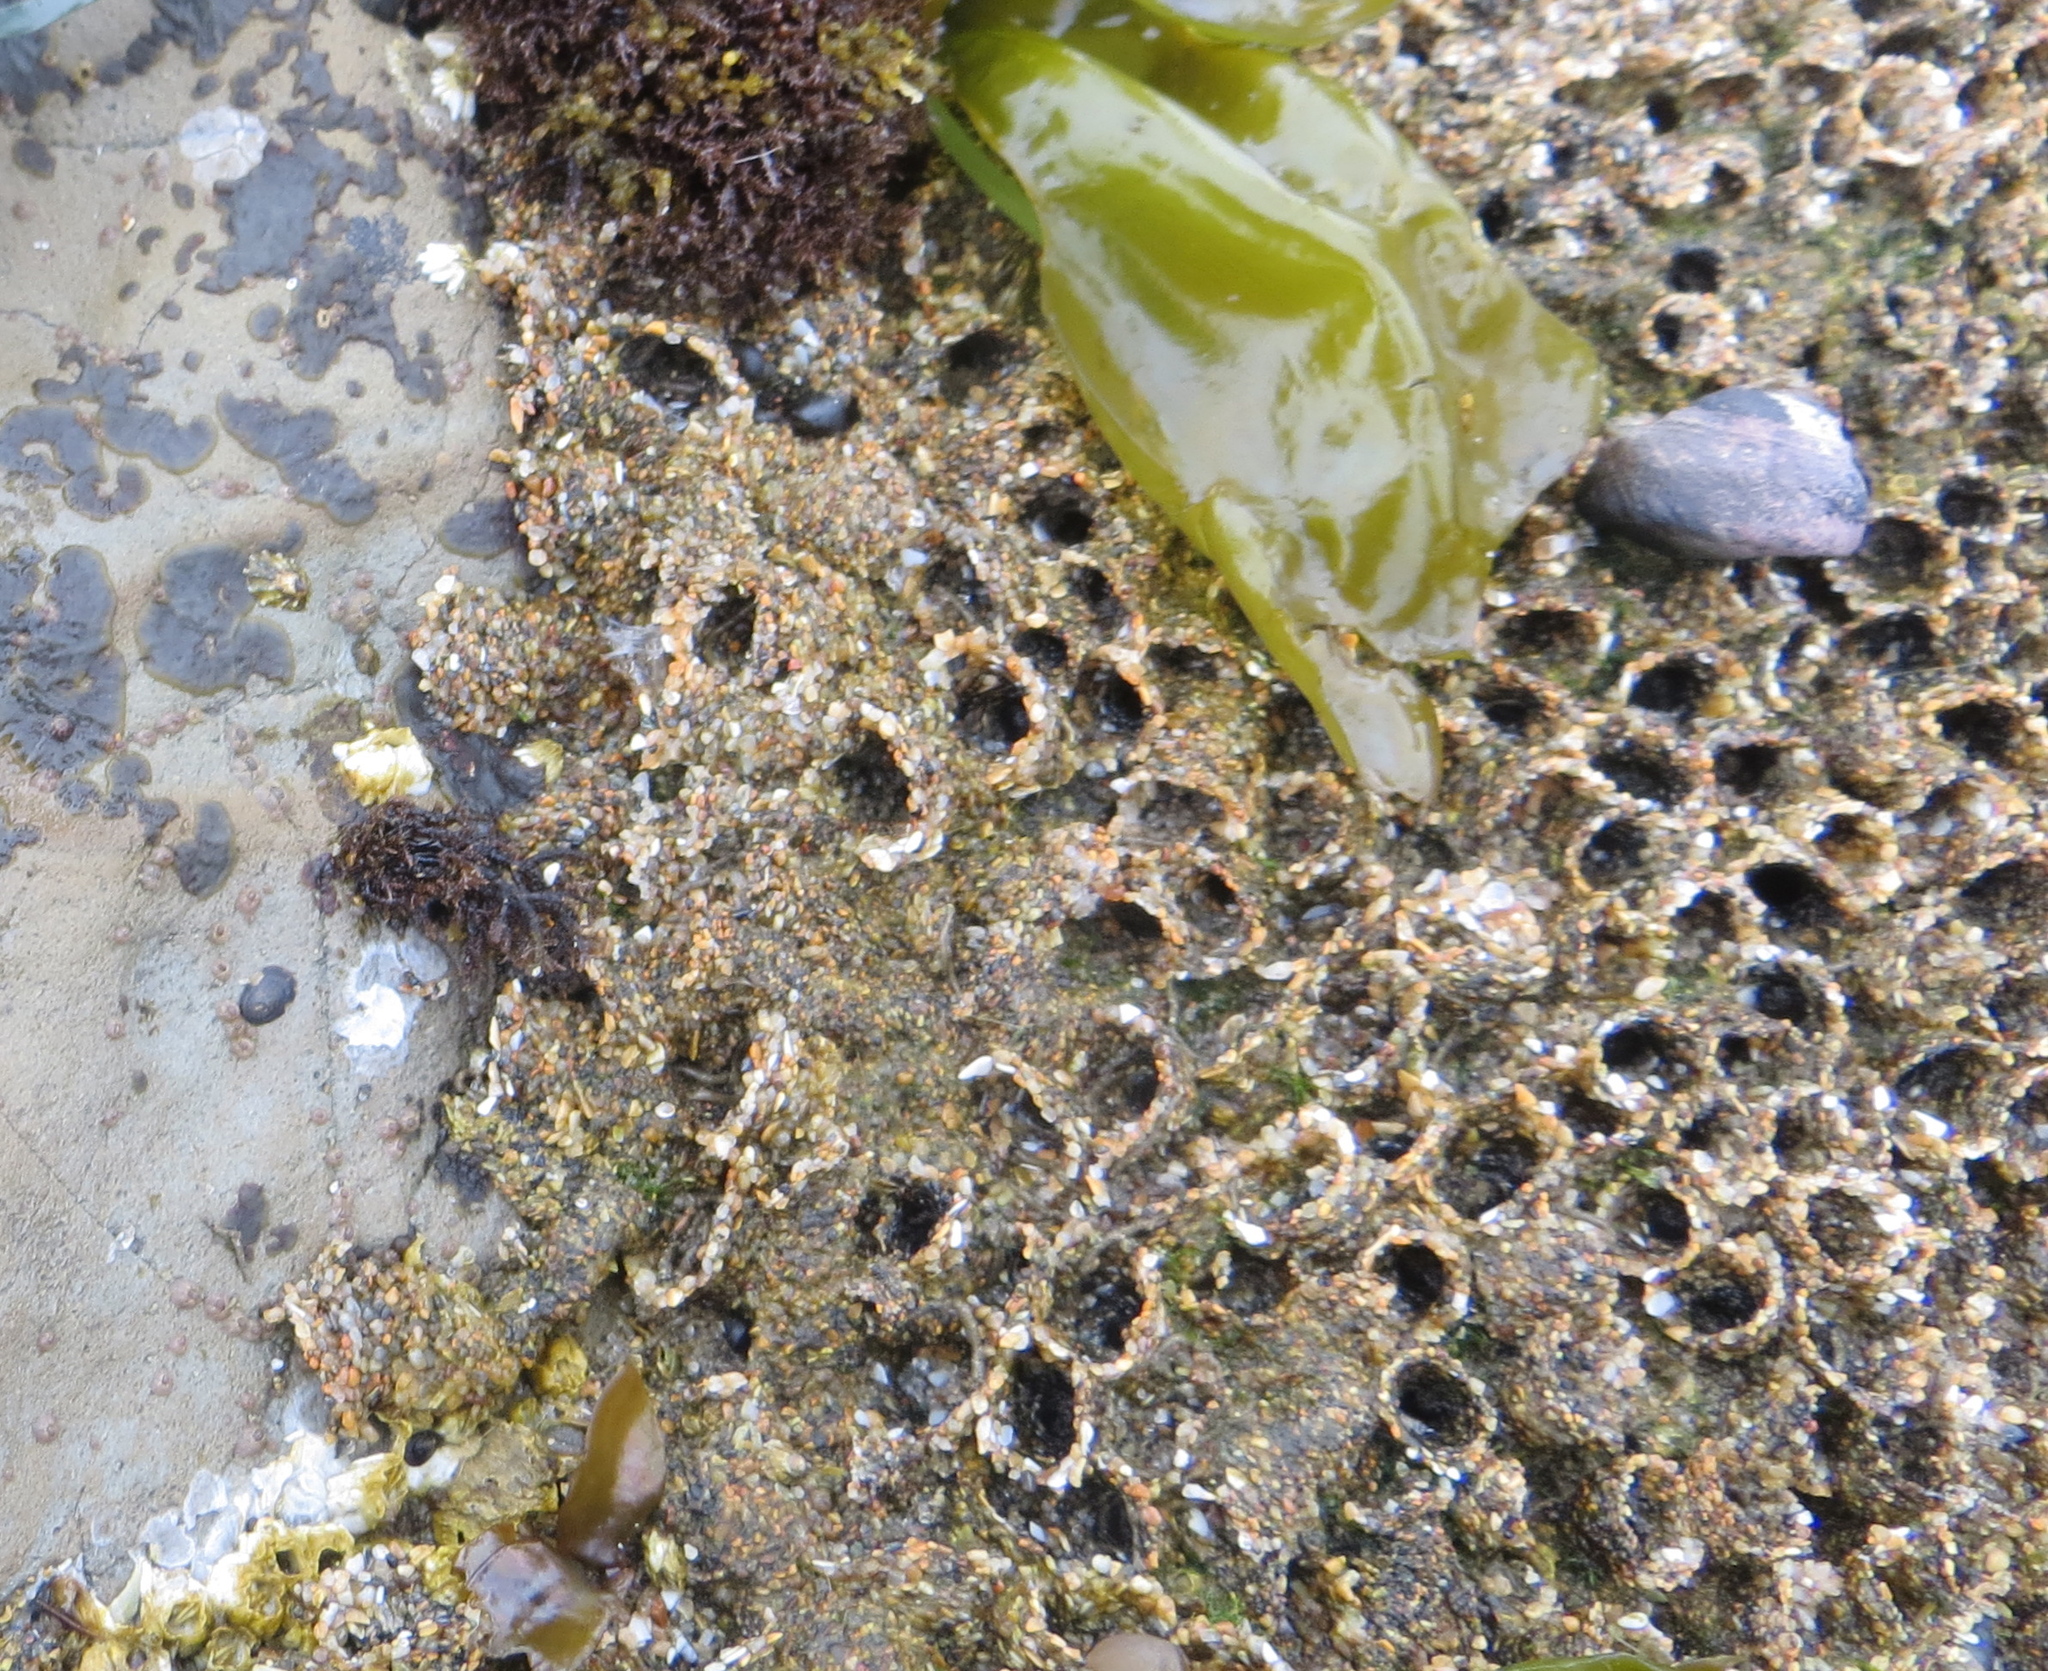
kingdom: Animalia
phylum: Annelida
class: Polychaeta
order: Sabellida
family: Sabellariidae
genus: Phragmatopoma
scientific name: Phragmatopoma californica
